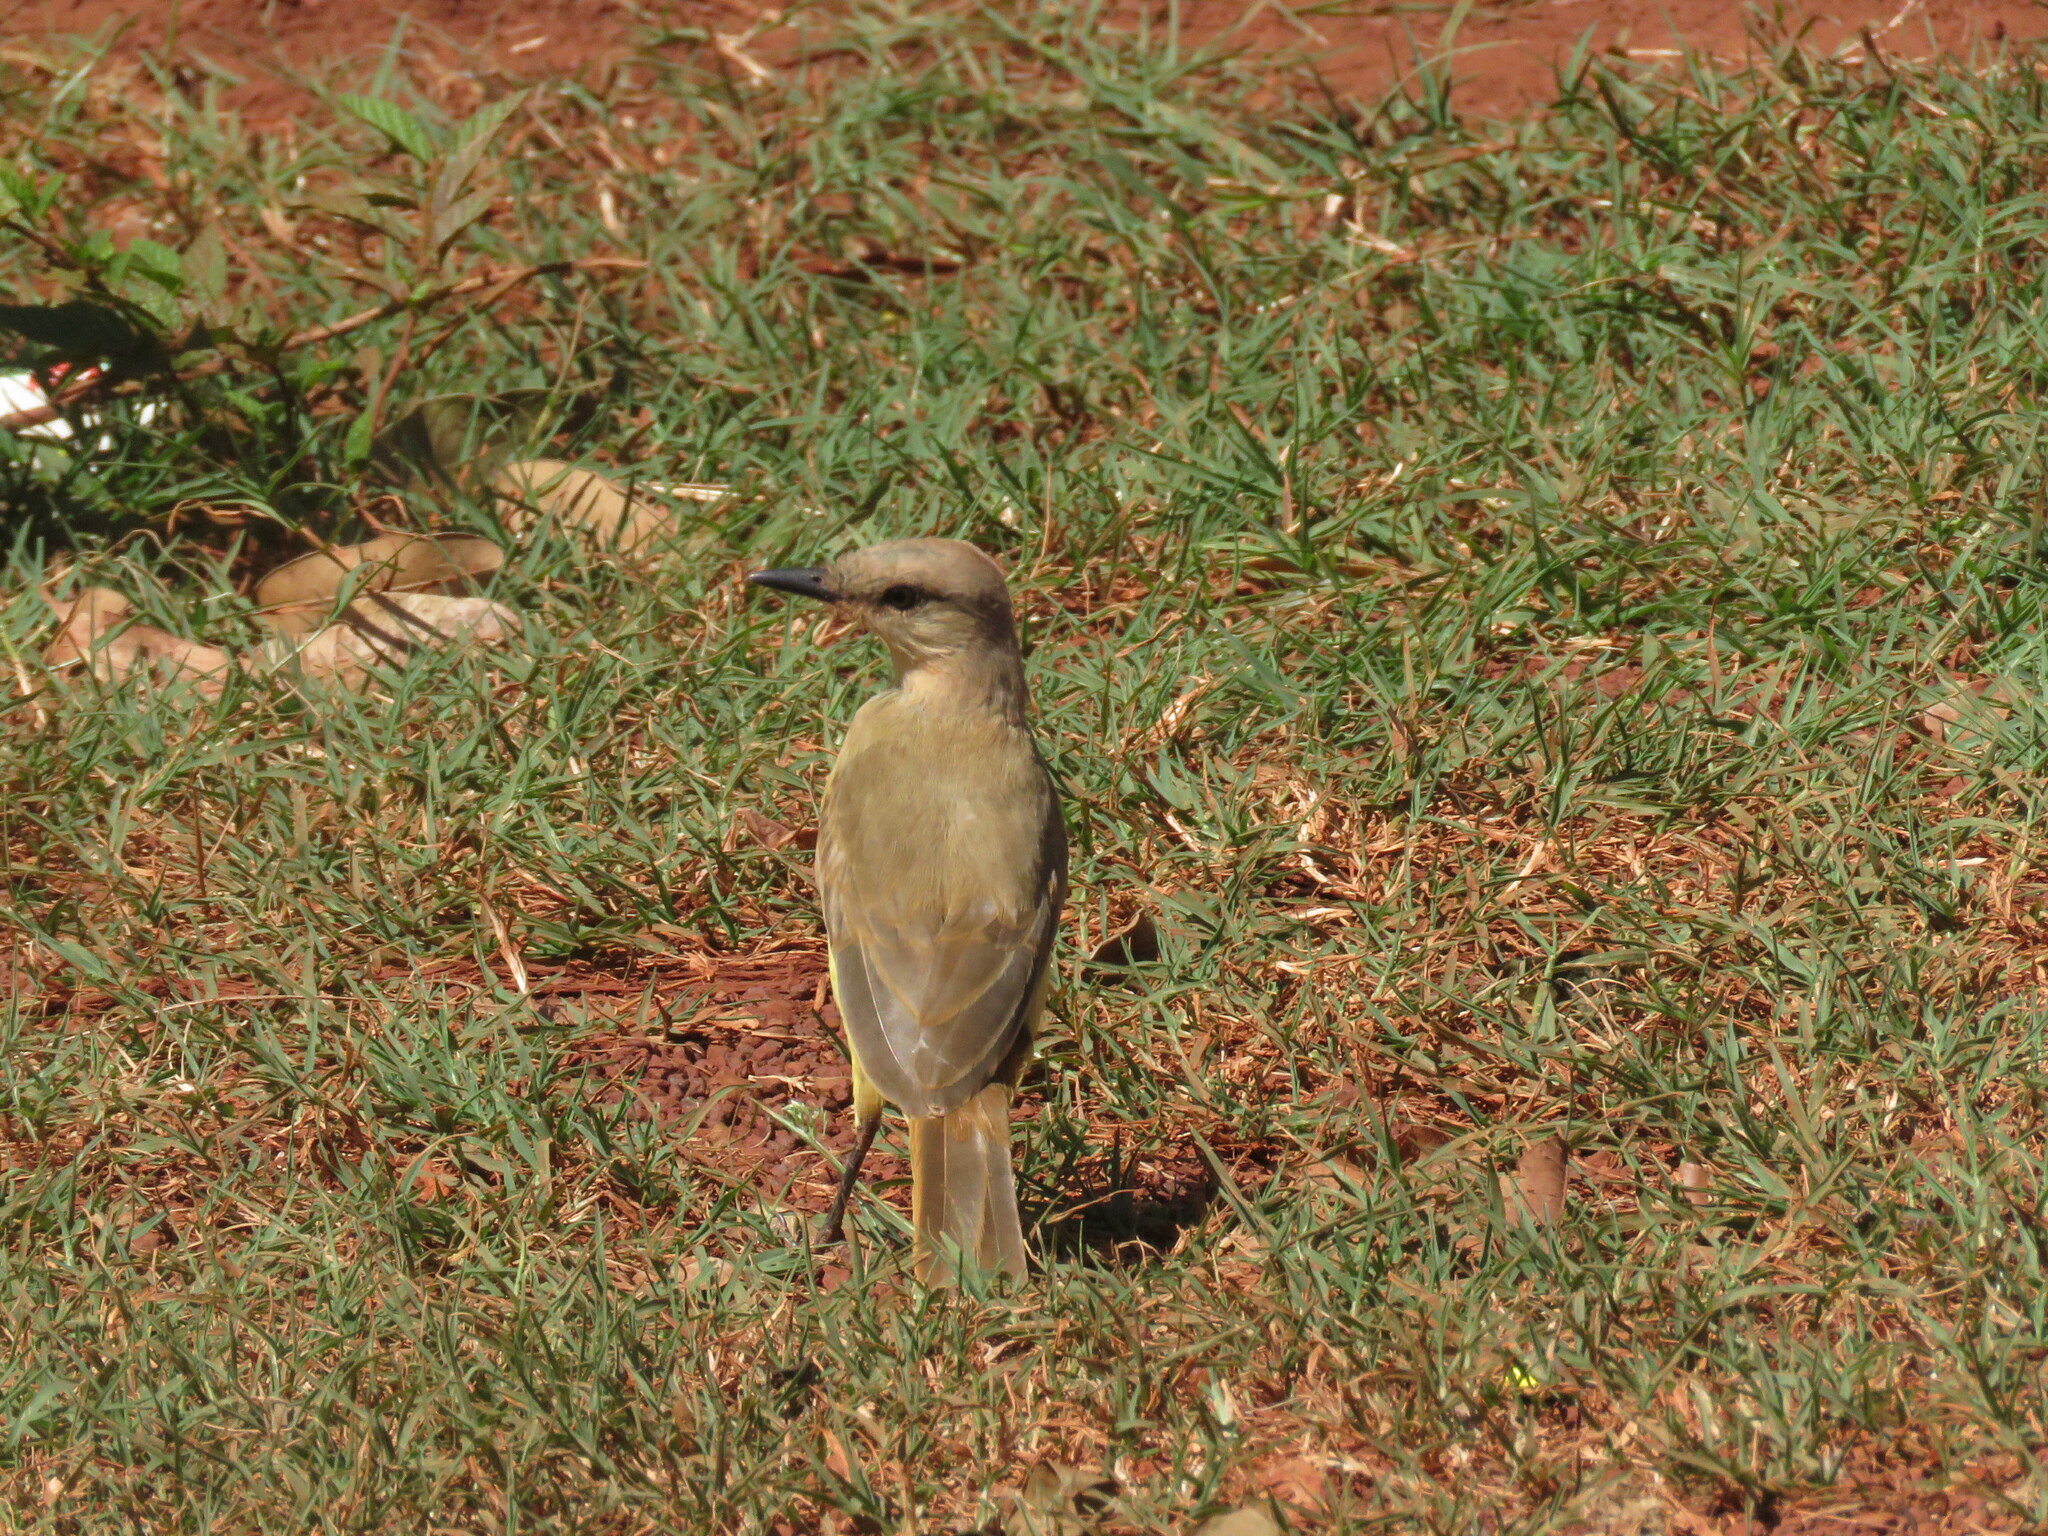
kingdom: Animalia
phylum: Chordata
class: Aves
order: Passeriformes
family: Tyrannidae
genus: Machetornis
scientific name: Machetornis rixosa
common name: Cattle tyrant
